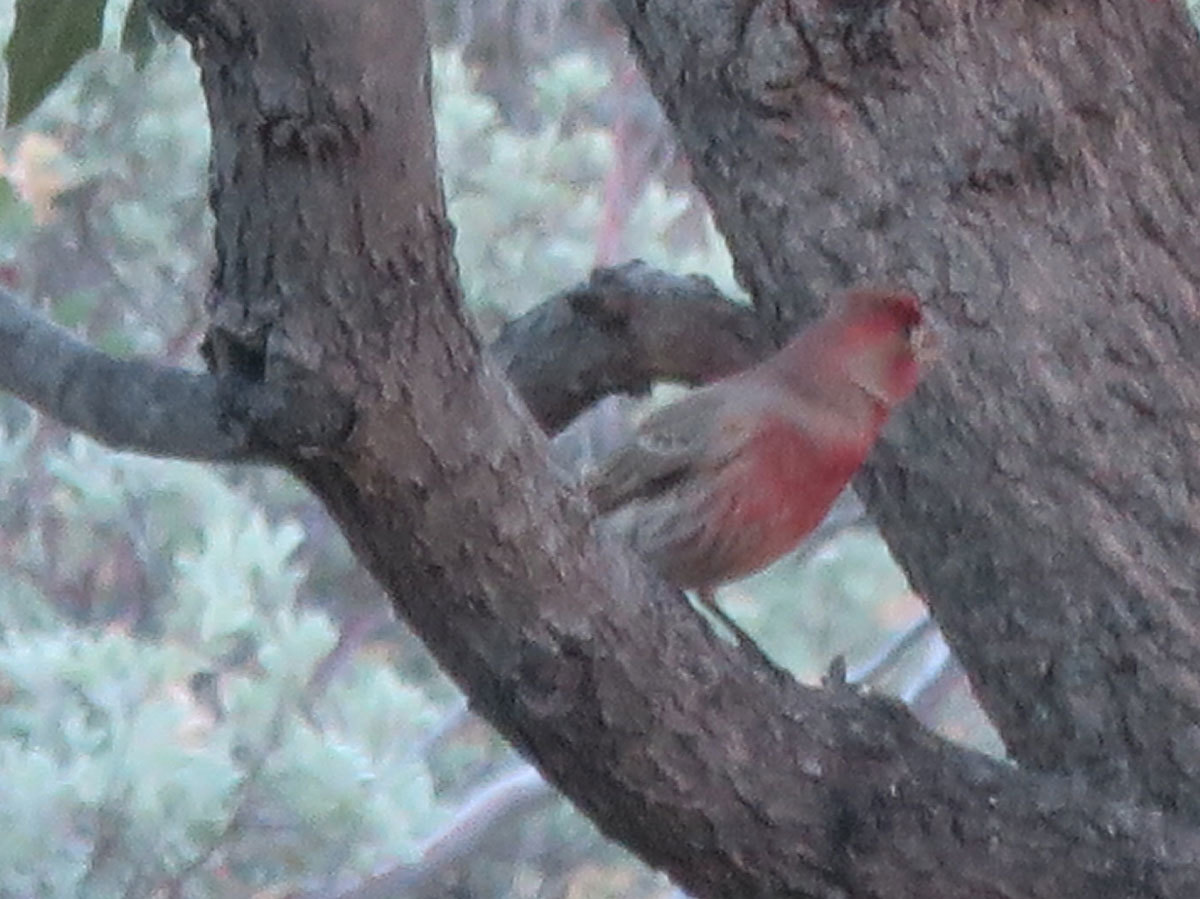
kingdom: Animalia
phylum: Chordata
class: Aves
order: Passeriformes
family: Fringillidae
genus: Haemorhous
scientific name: Haemorhous mexicanus
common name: House finch
